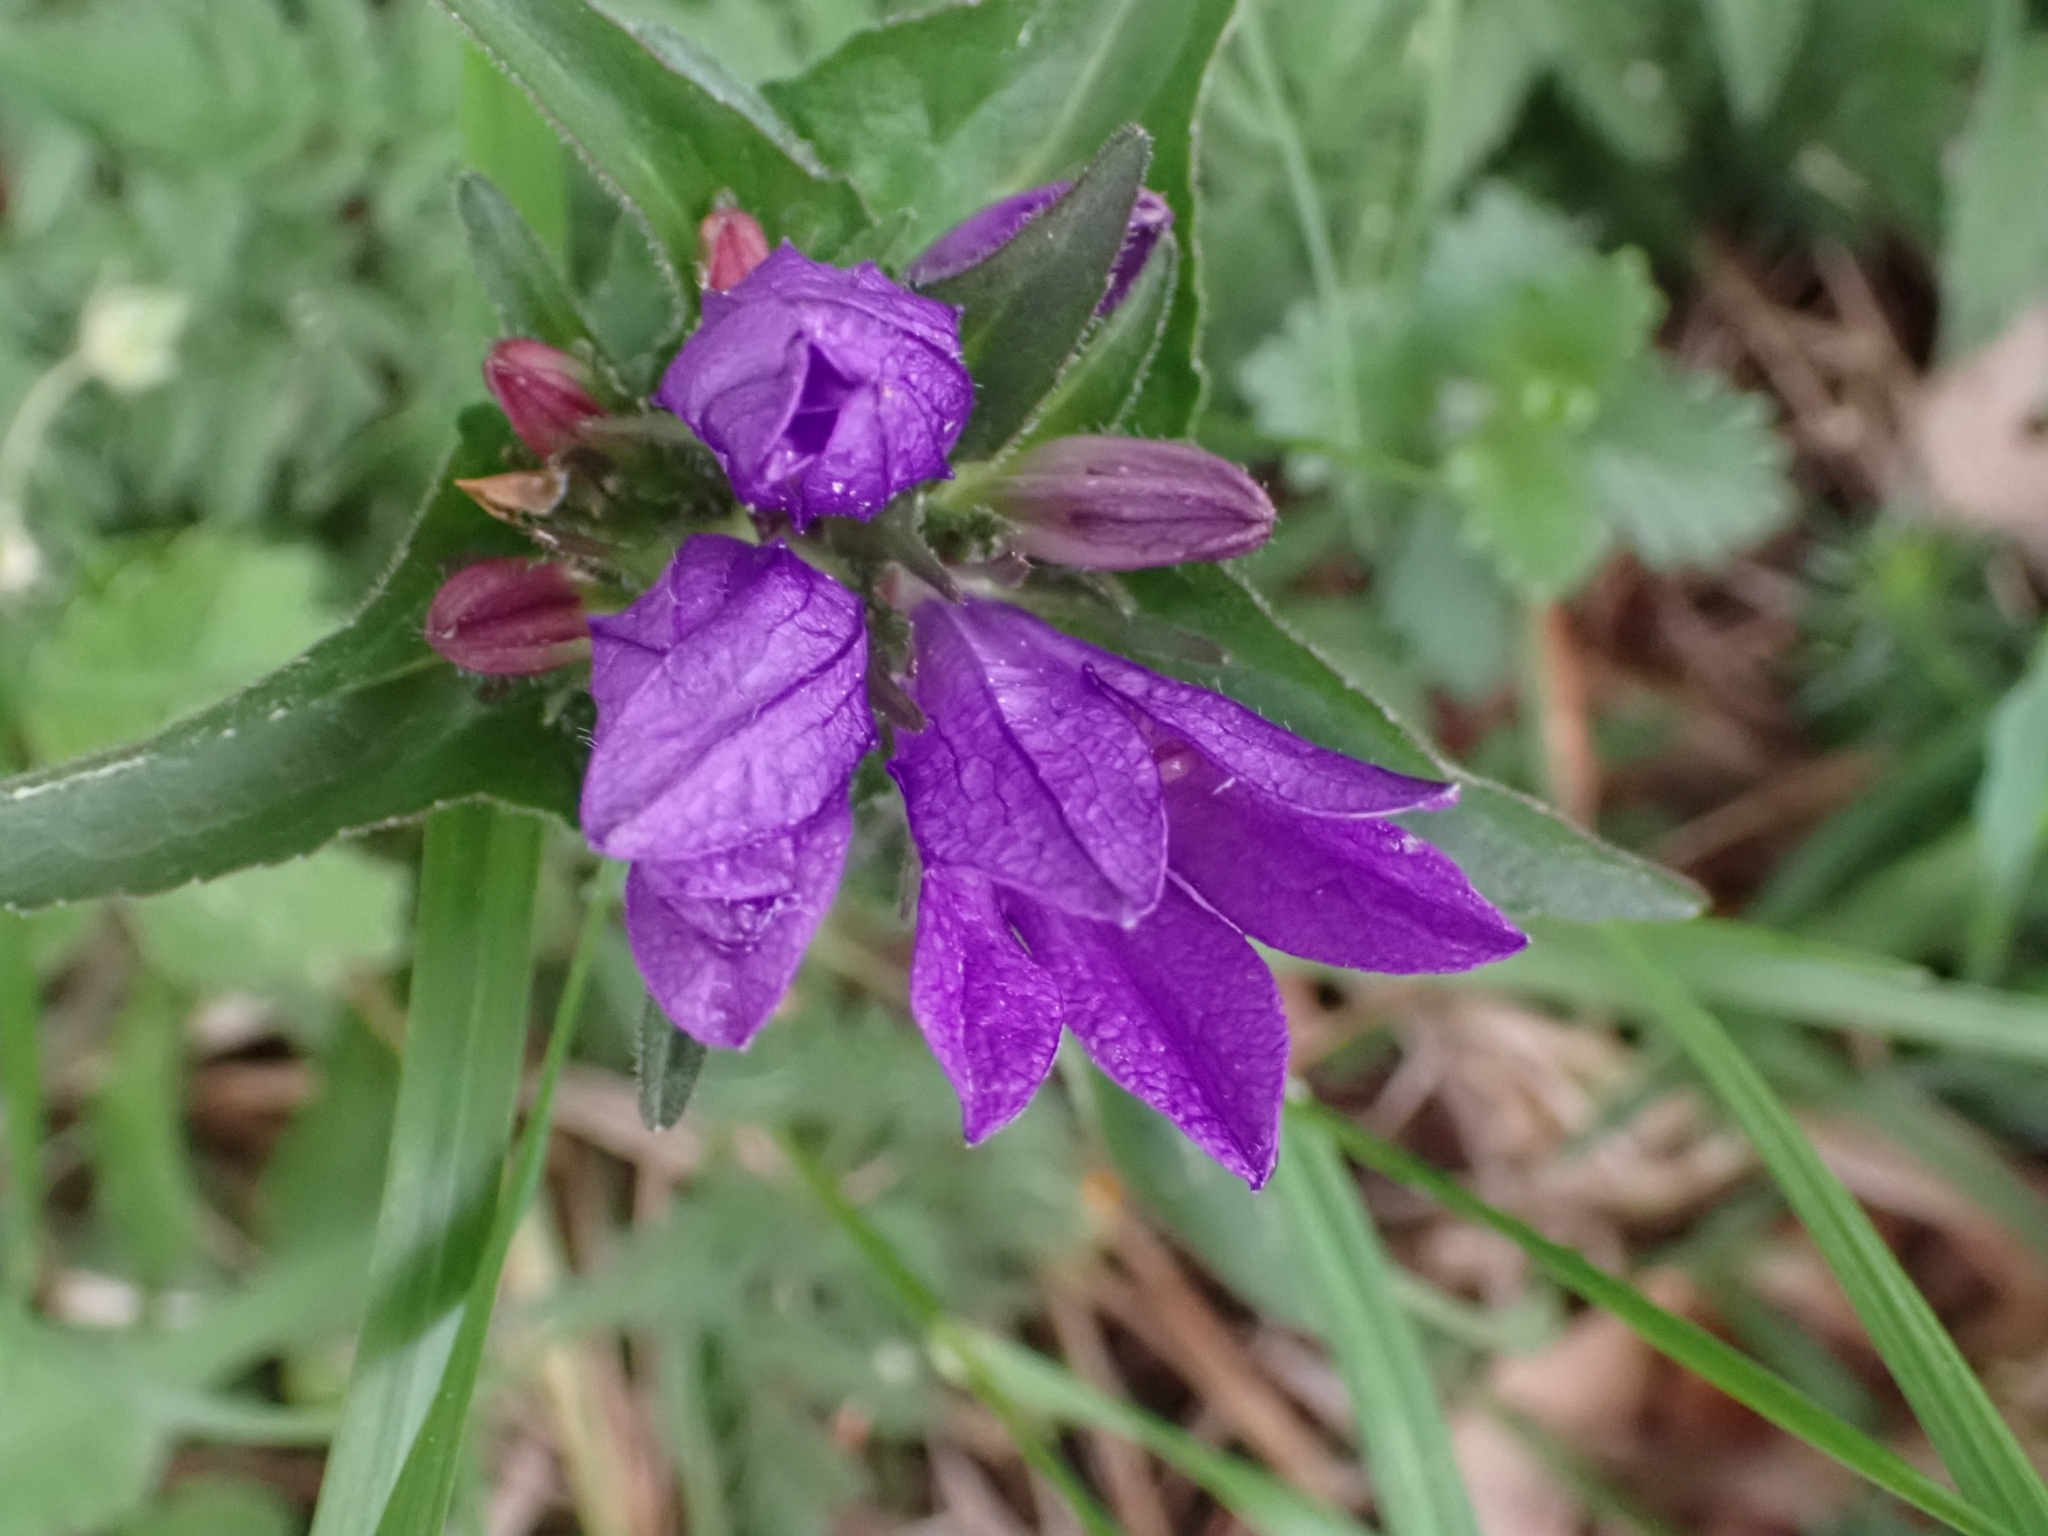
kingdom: Plantae
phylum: Tracheophyta
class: Magnoliopsida
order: Asterales
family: Campanulaceae
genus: Campanula
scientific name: Campanula glomerata
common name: Clustered bellflower
